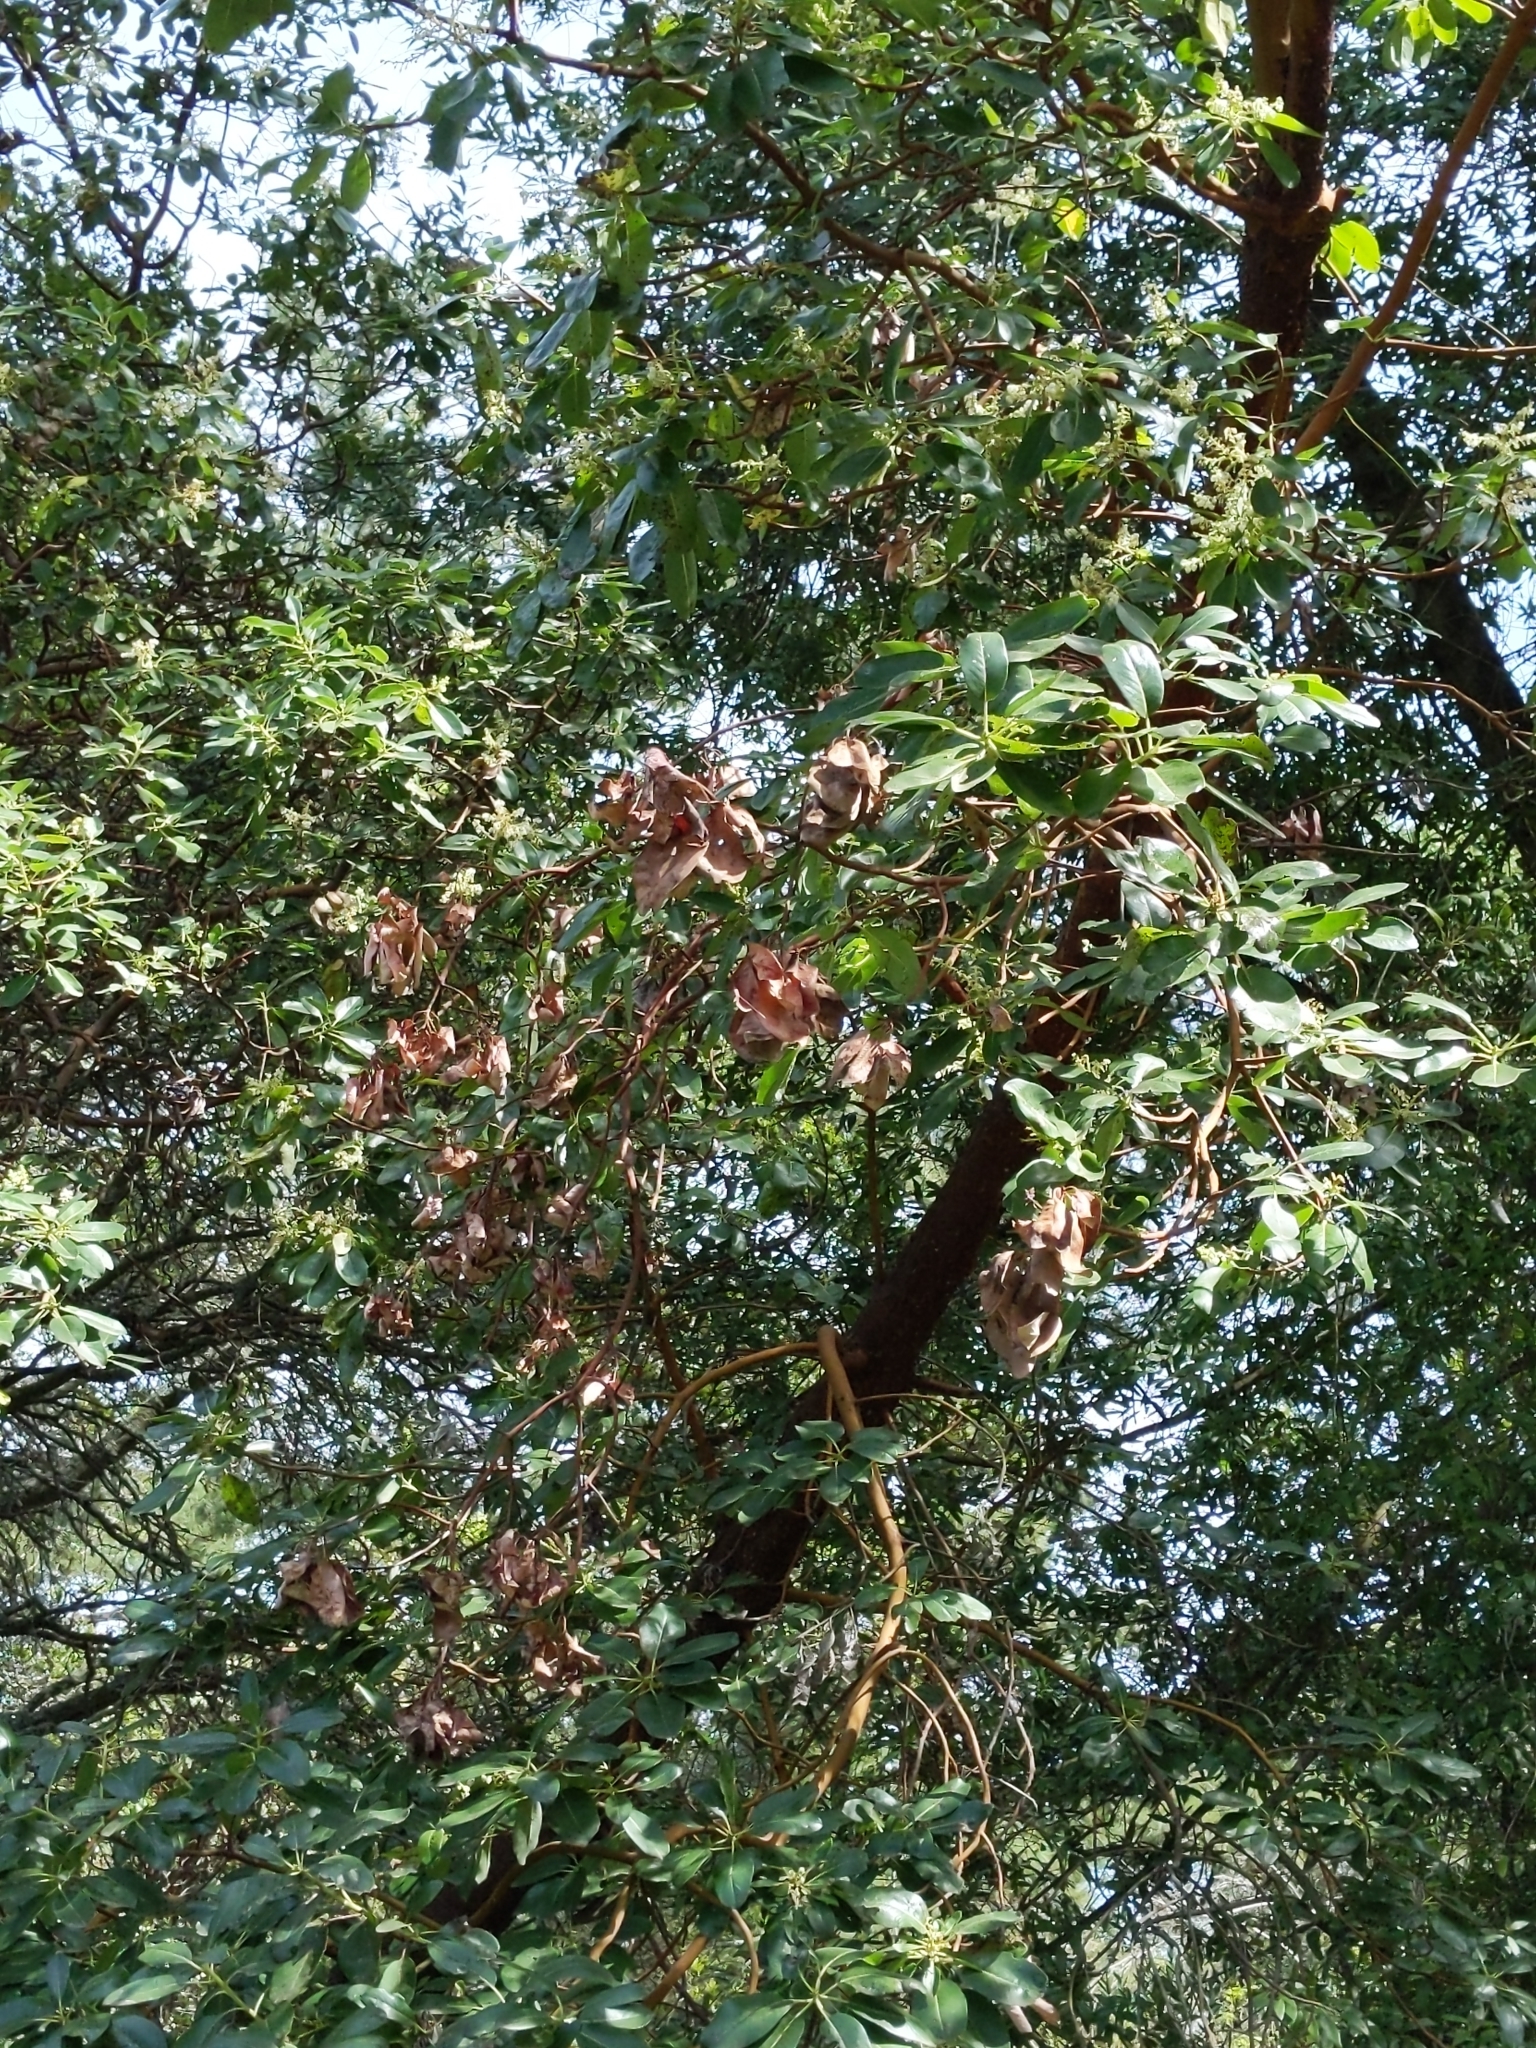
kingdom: Plantae
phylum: Tracheophyta
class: Magnoliopsida
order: Ericales
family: Ericaceae
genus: Arbutus
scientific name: Arbutus menziesii
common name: Pacific madrone
